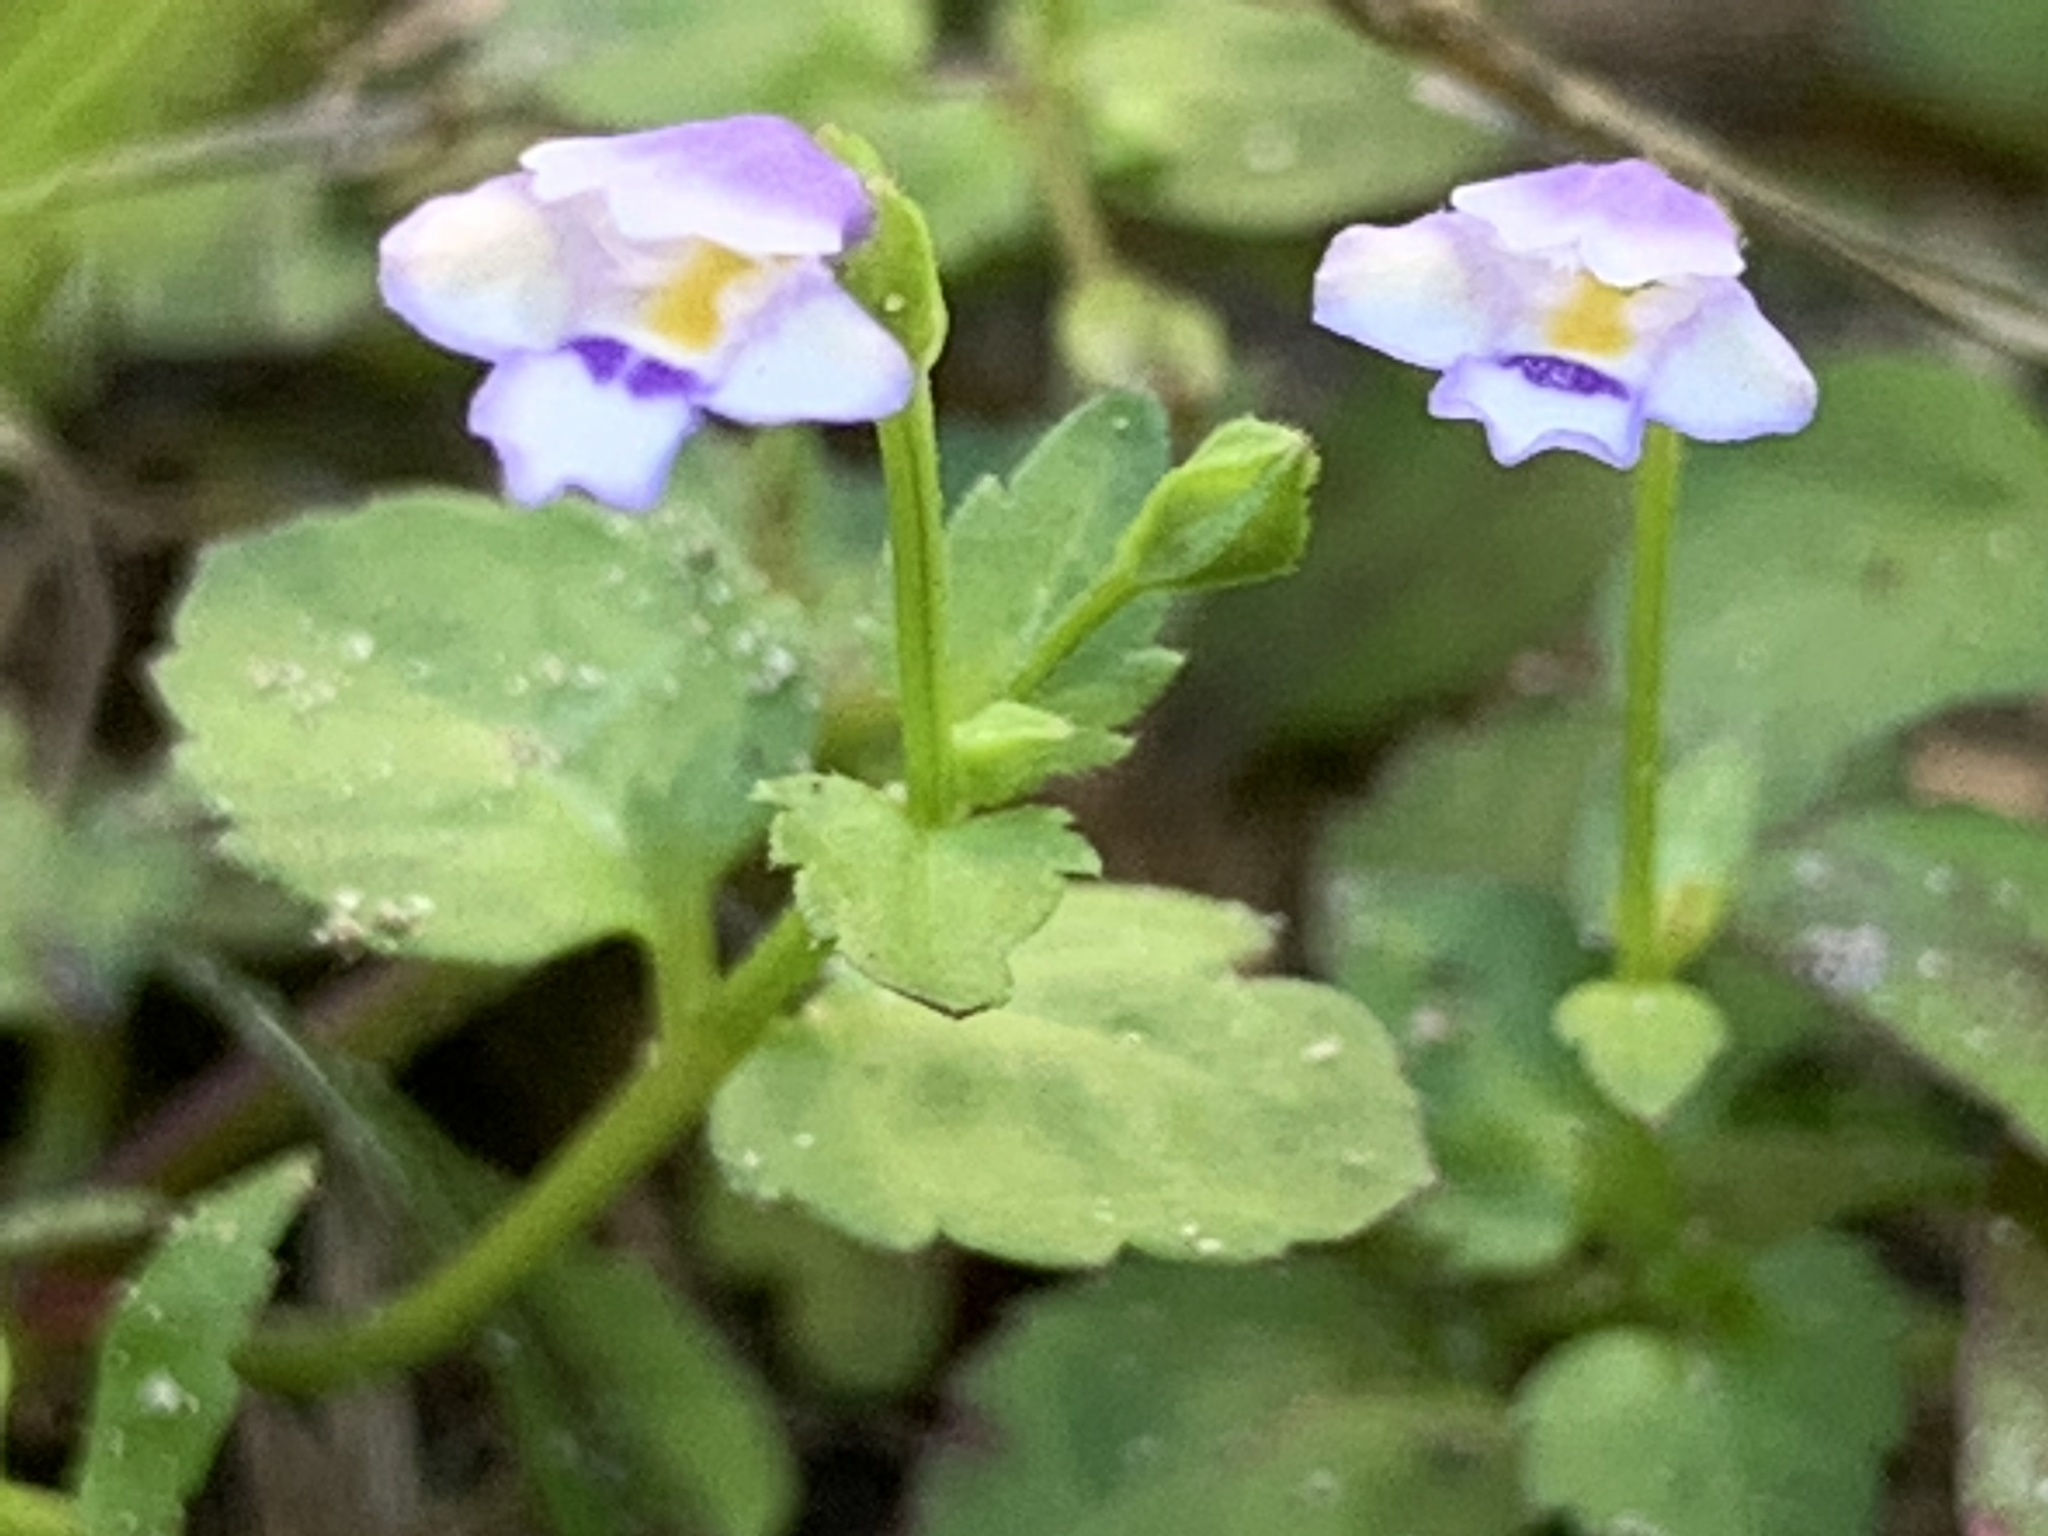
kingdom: Plantae
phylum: Tracheophyta
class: Magnoliopsida
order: Lamiales
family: Linderniaceae
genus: Torenia
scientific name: Torenia crustacea
